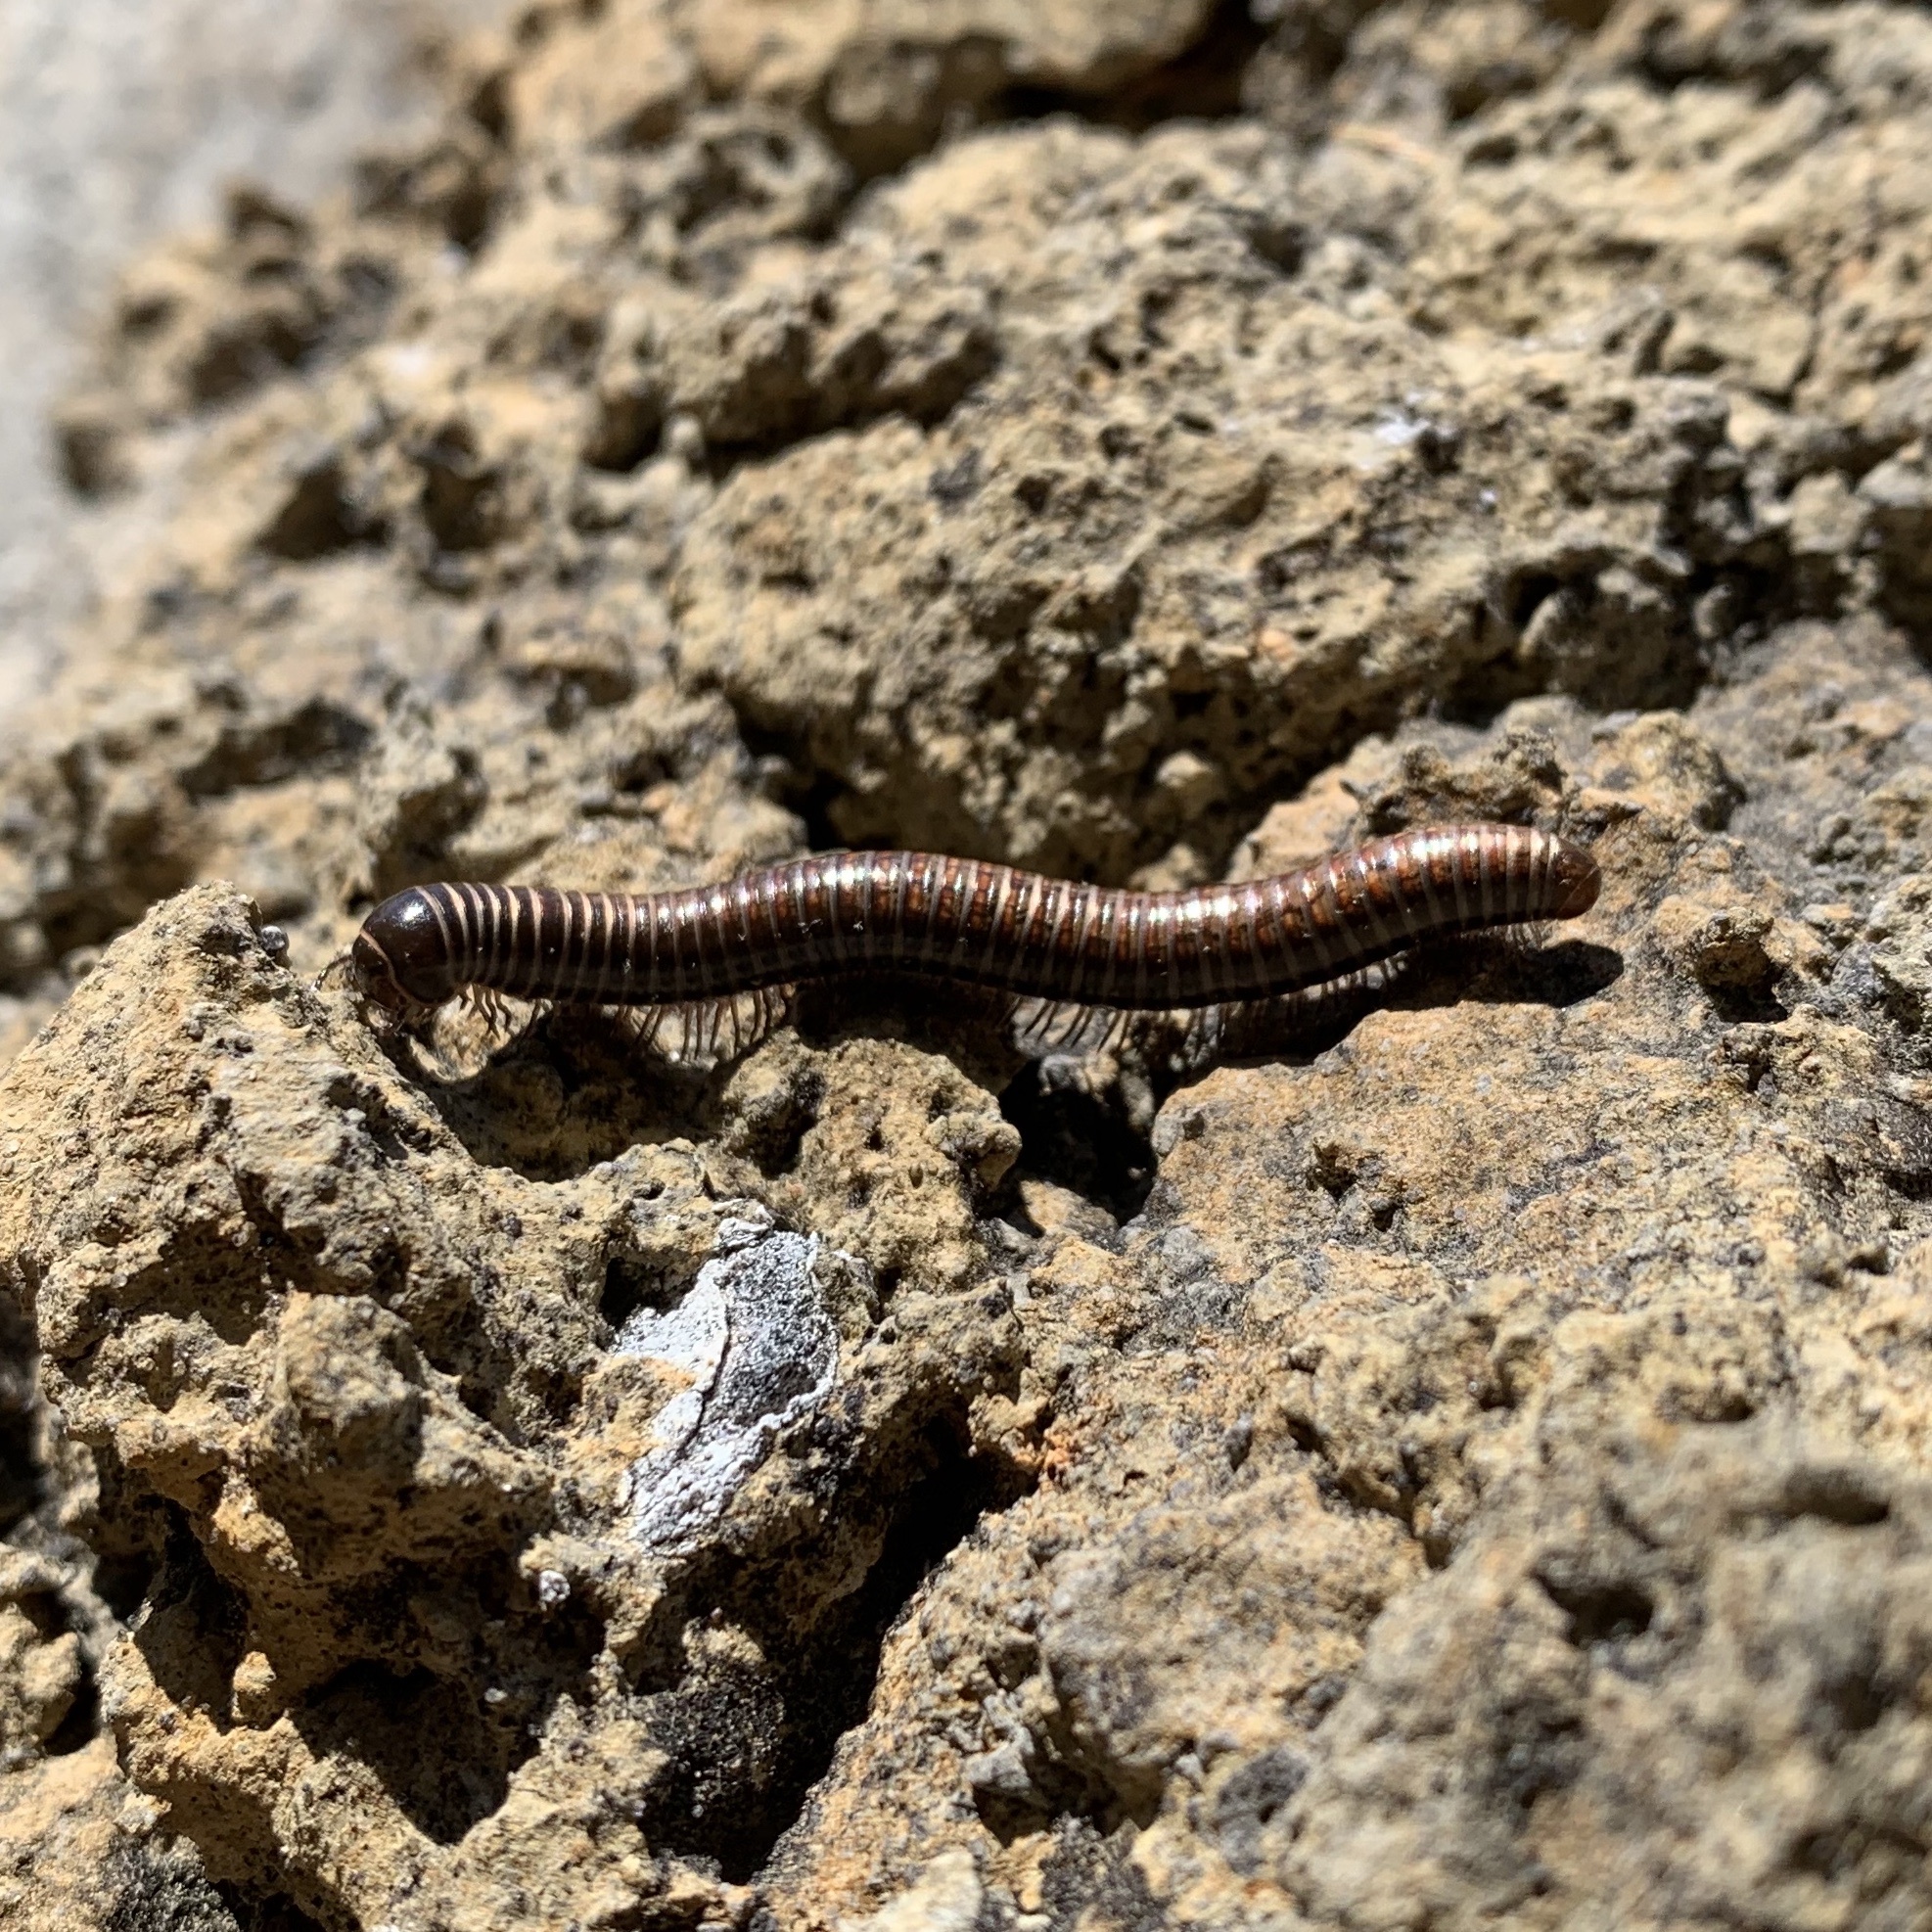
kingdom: Animalia
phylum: Arthropoda
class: Diplopoda
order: Spirostreptida
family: Choctellidae
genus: Choctella
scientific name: Choctella cumminsi
